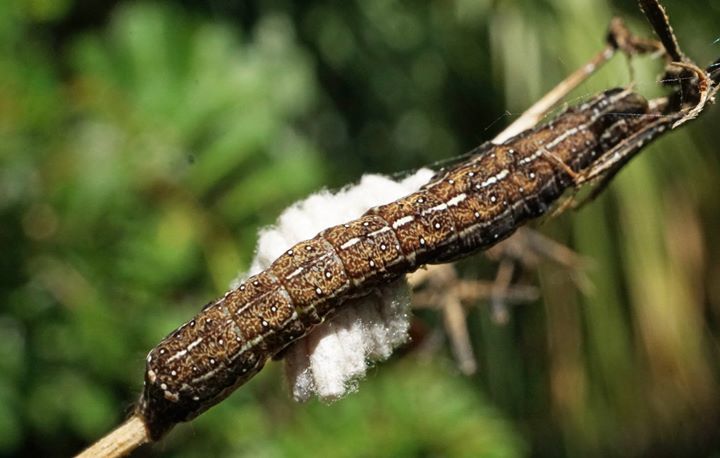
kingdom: Animalia
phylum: Arthropoda
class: Insecta
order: Lepidoptera
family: Noctuidae
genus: Condica
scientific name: Condica mobilis
